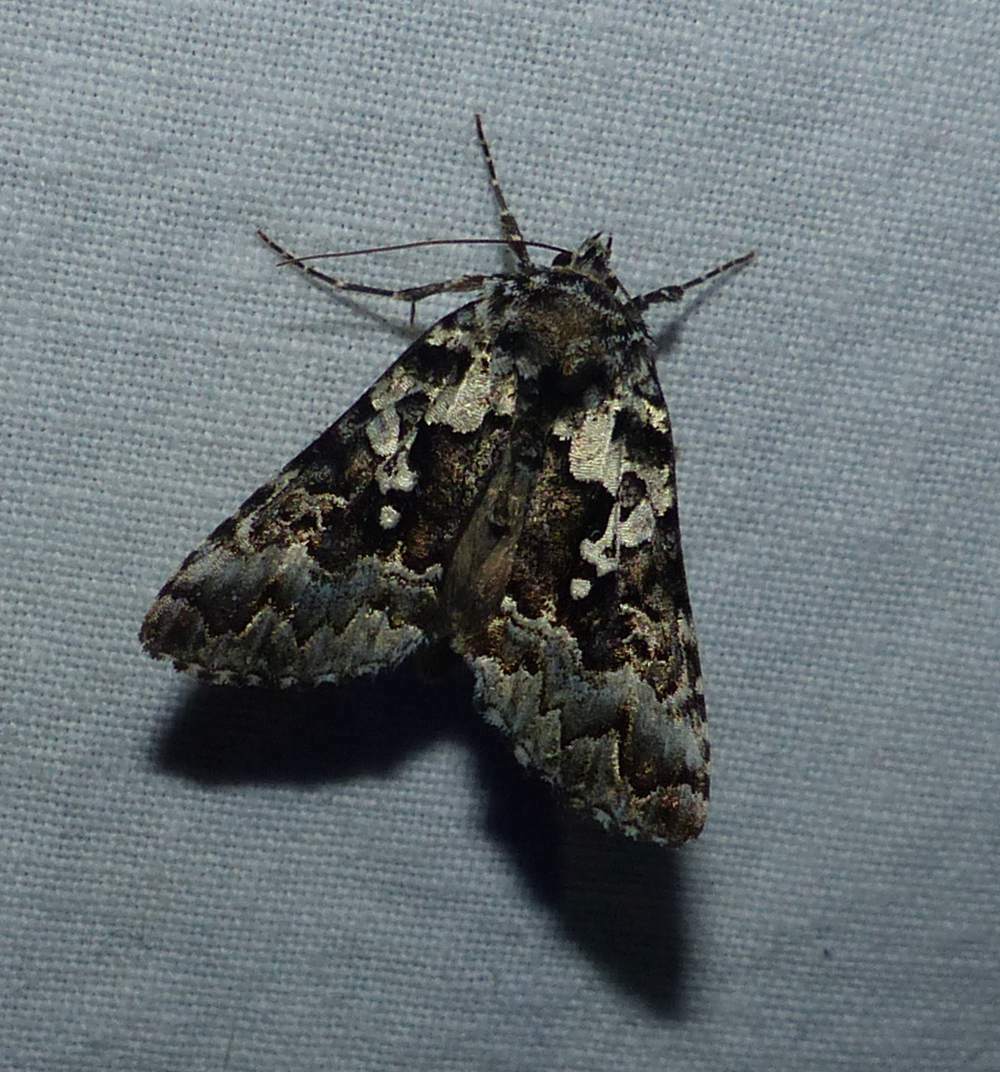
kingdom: Animalia
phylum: Arthropoda
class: Insecta
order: Lepidoptera
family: Noctuidae
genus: Syngrapha
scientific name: Syngrapha rectangula
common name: Angulated cutworm
